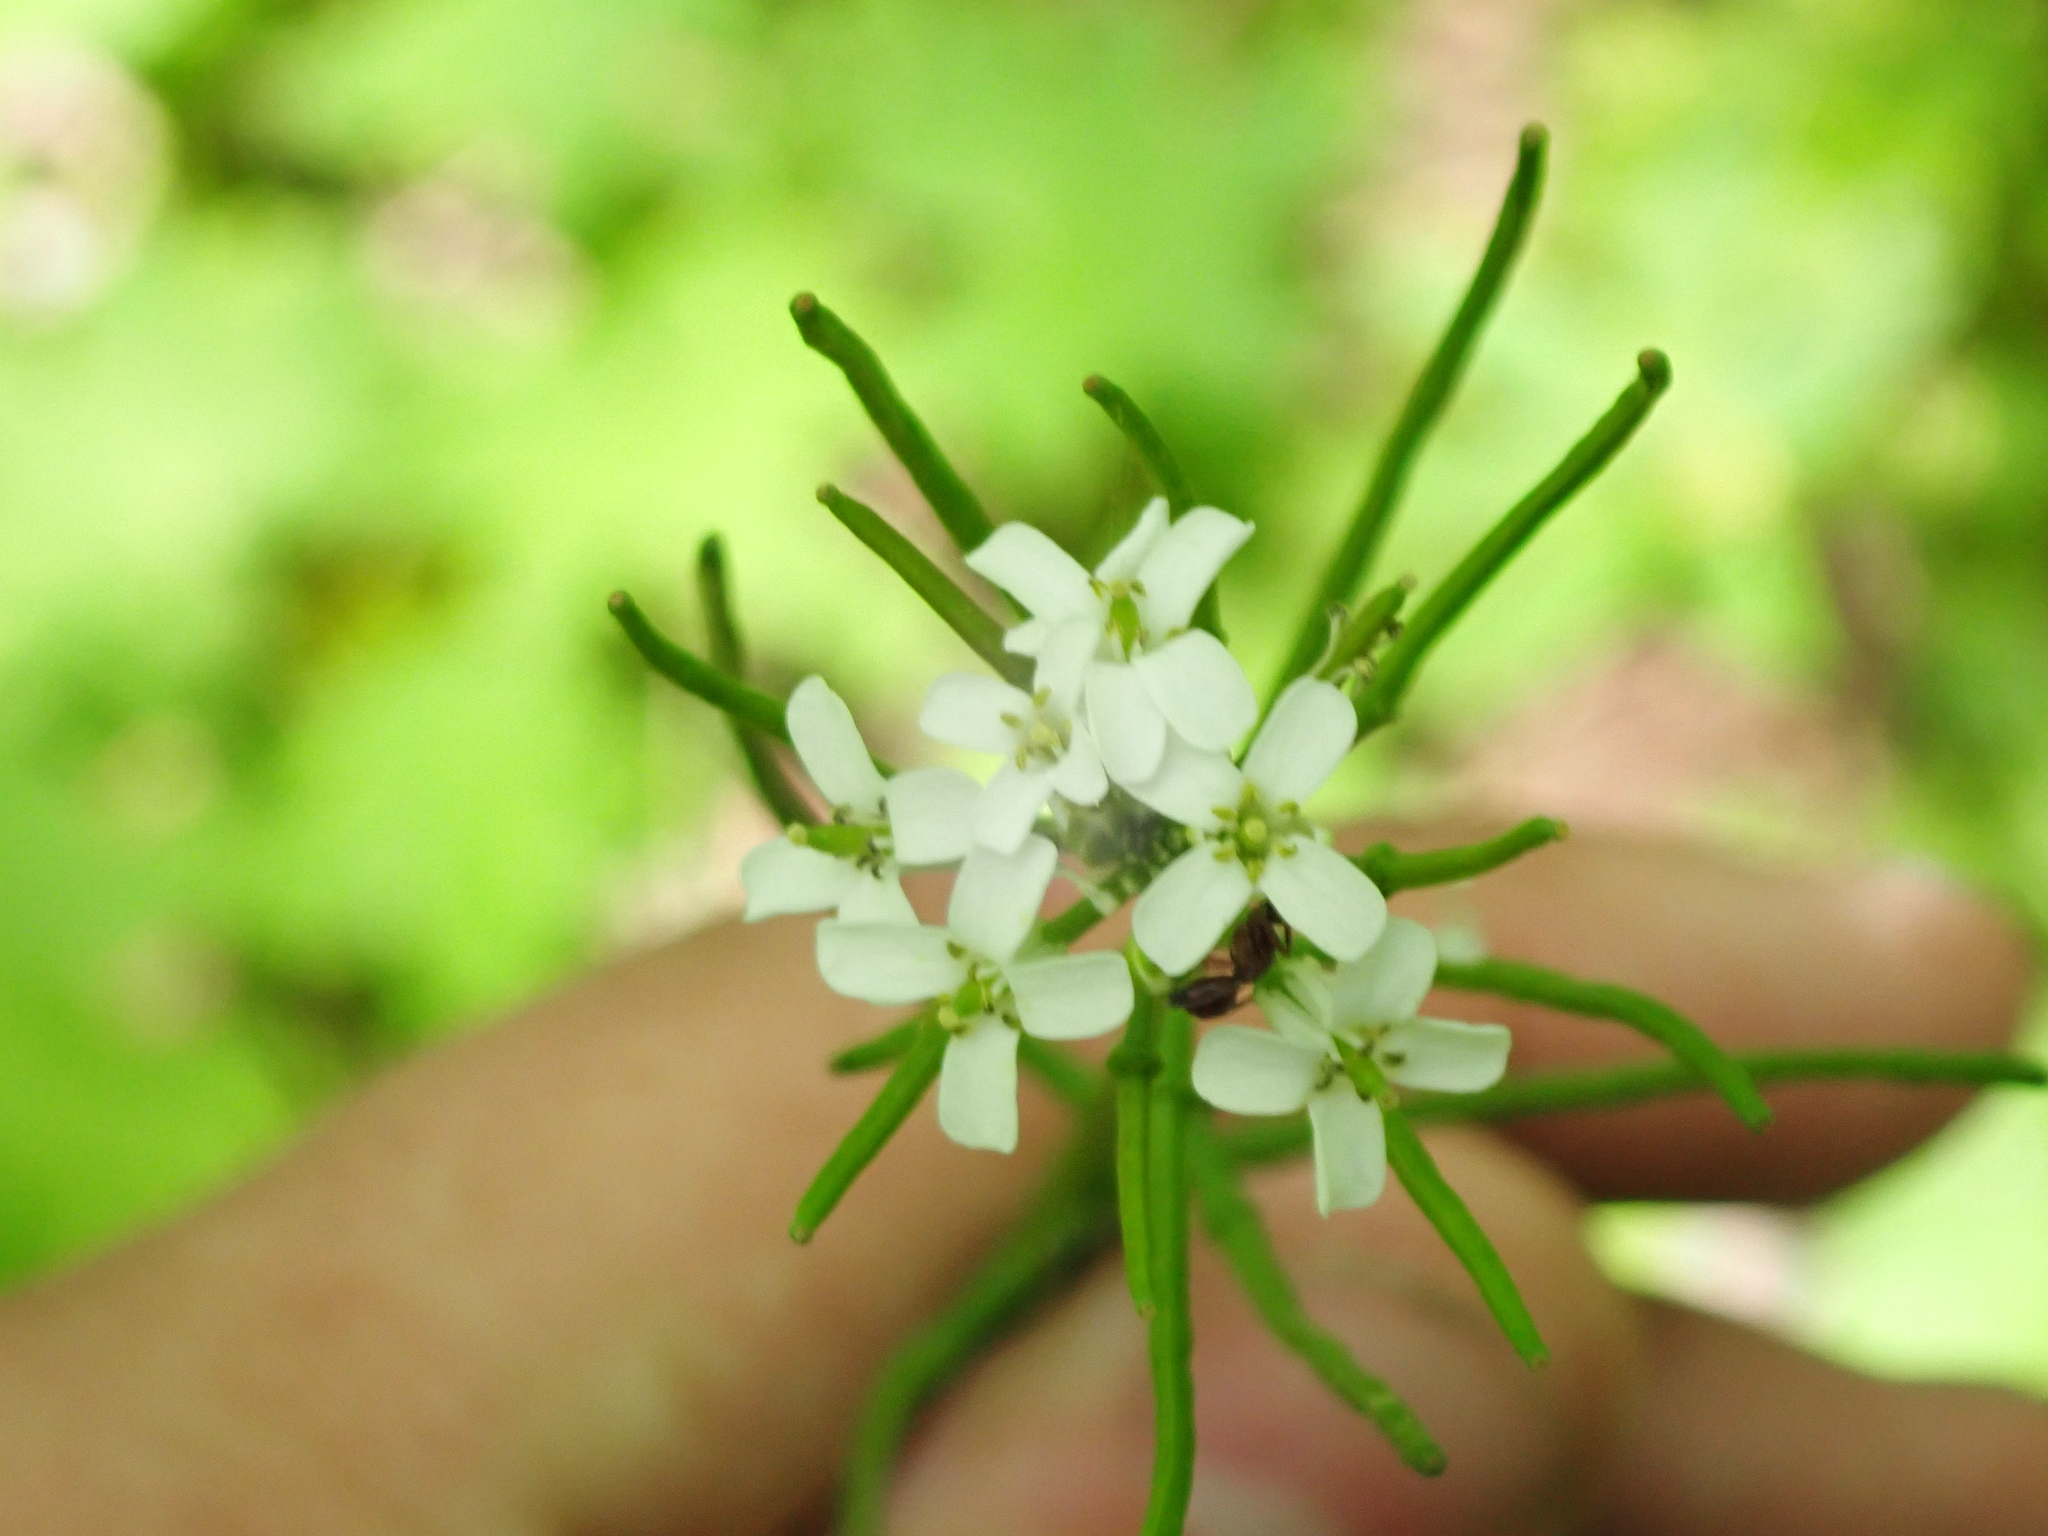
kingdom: Plantae
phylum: Tracheophyta
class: Magnoliopsida
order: Brassicales
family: Brassicaceae
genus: Alliaria
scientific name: Alliaria petiolata
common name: Garlic mustard
